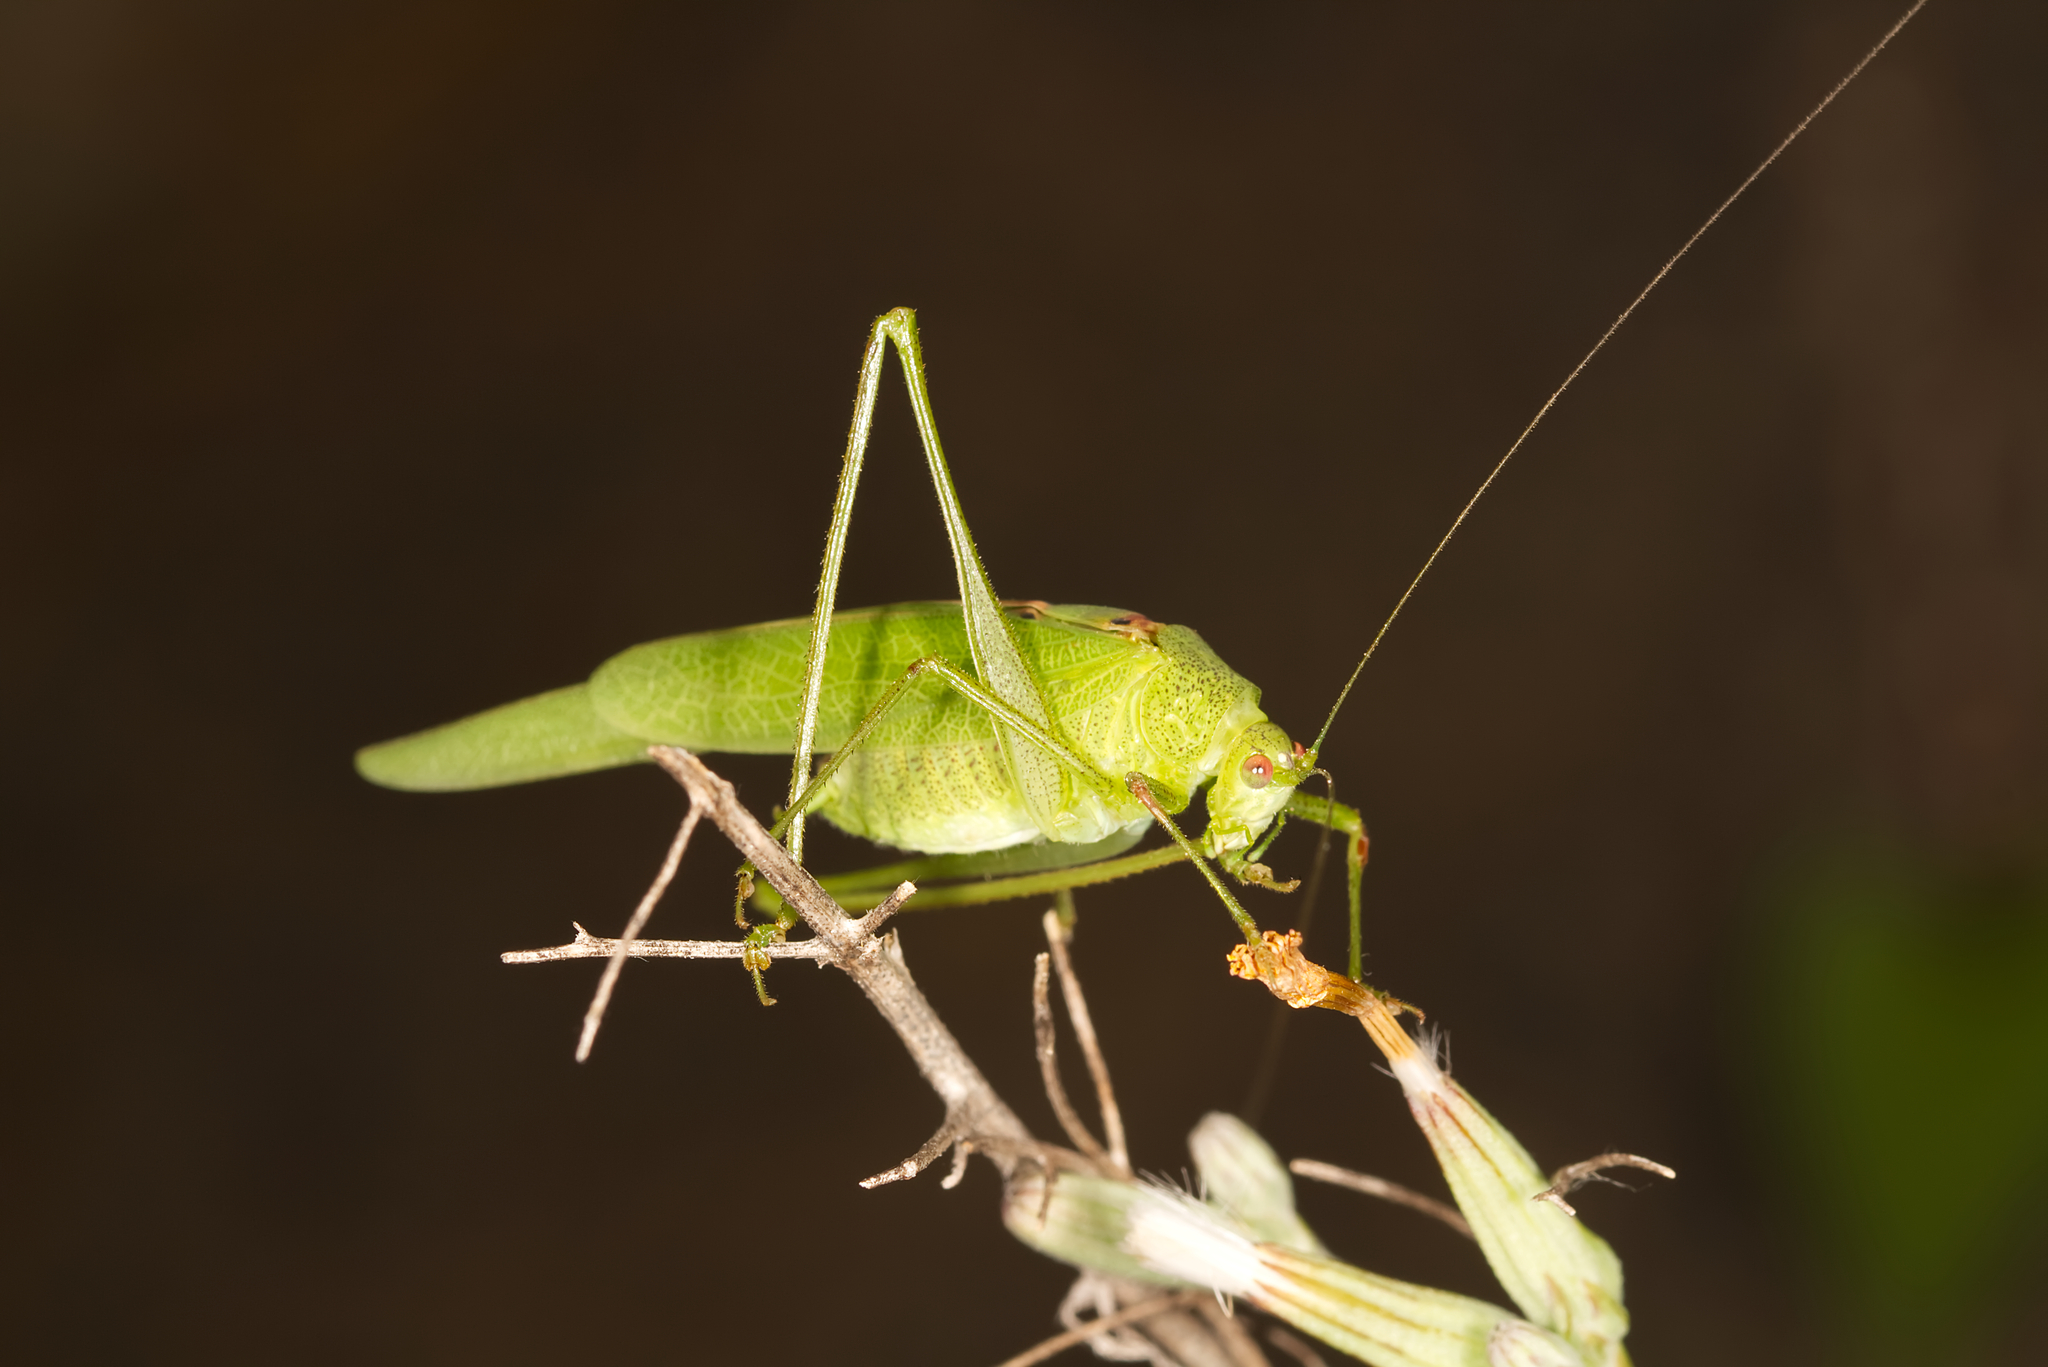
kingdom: Animalia
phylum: Arthropoda
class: Insecta
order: Orthoptera
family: Tettigoniidae
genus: Phaneroptera
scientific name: Phaneroptera nana
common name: Southern sickle bush-cricket
